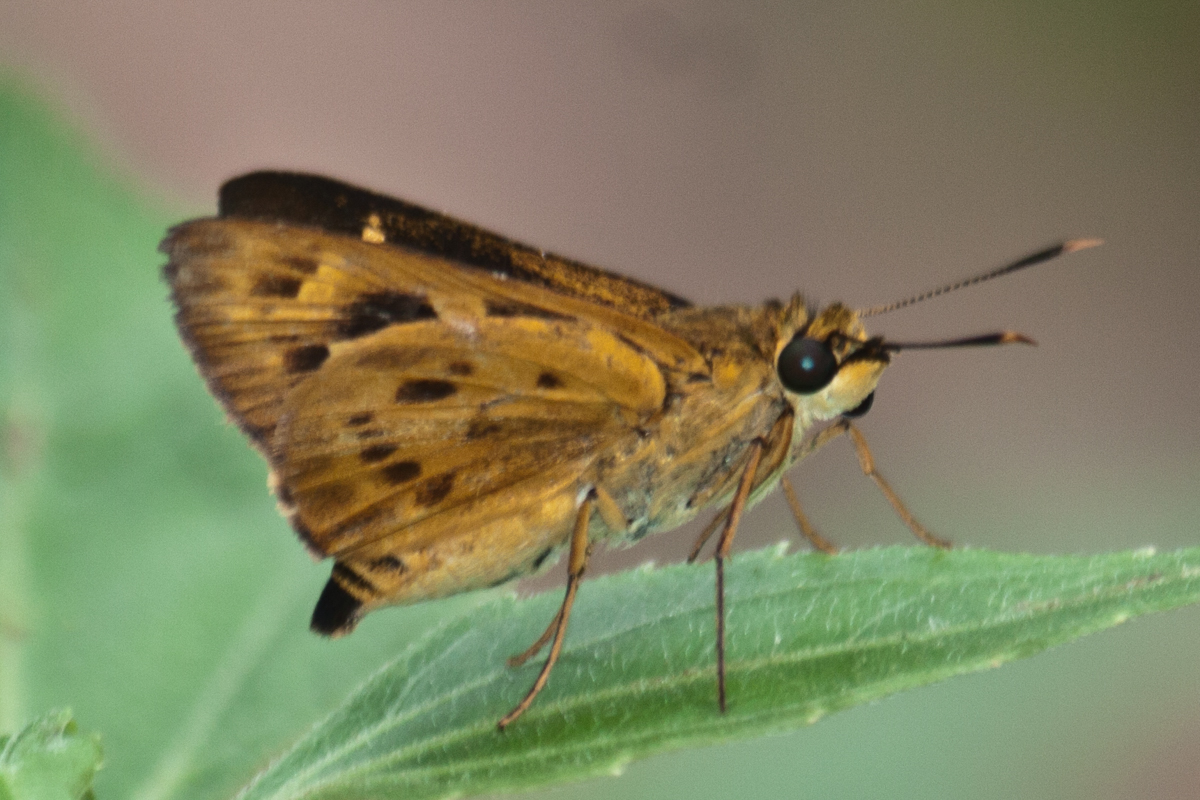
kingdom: Animalia
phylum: Arthropoda
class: Insecta
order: Lepidoptera
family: Hesperiidae
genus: Thoressa
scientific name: Thoressa masoni
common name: Golden ace
